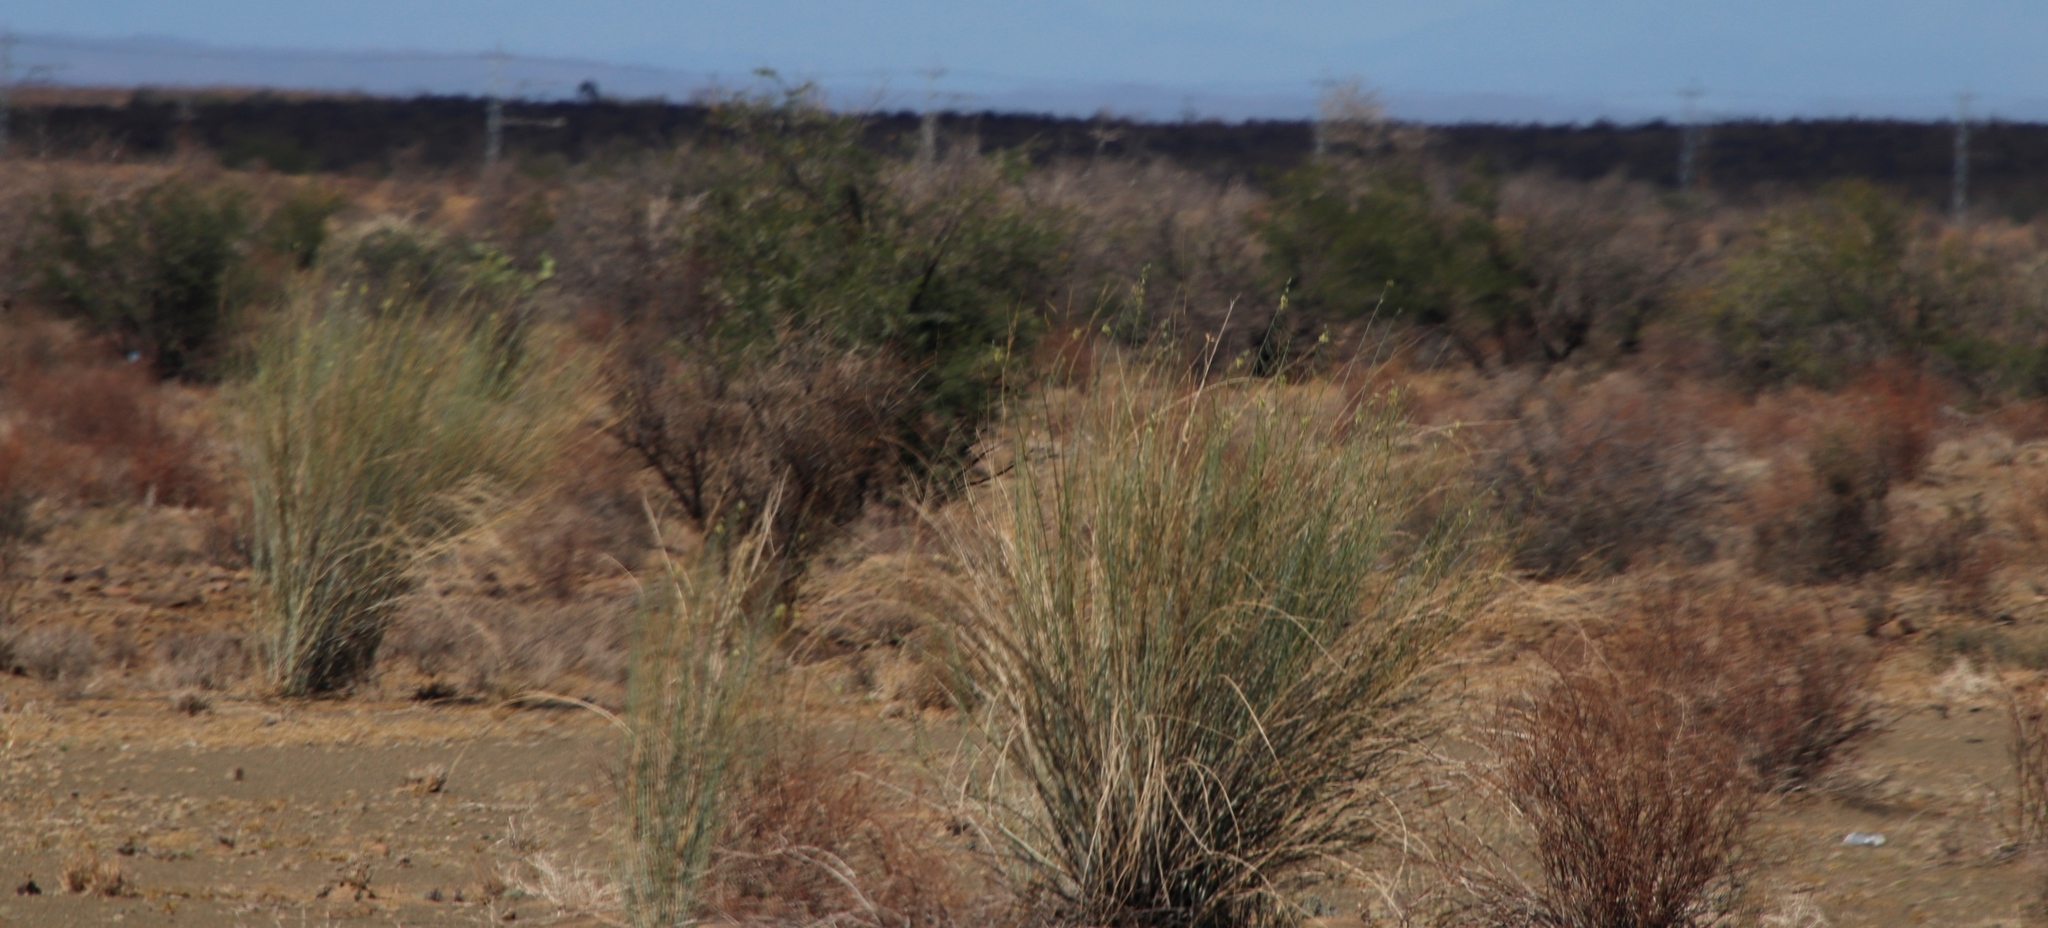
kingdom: Plantae
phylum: Tracheophyta
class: Magnoliopsida
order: Gentianales
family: Apocynaceae
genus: Gomphocarpus
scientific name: Gomphocarpus filiformis
